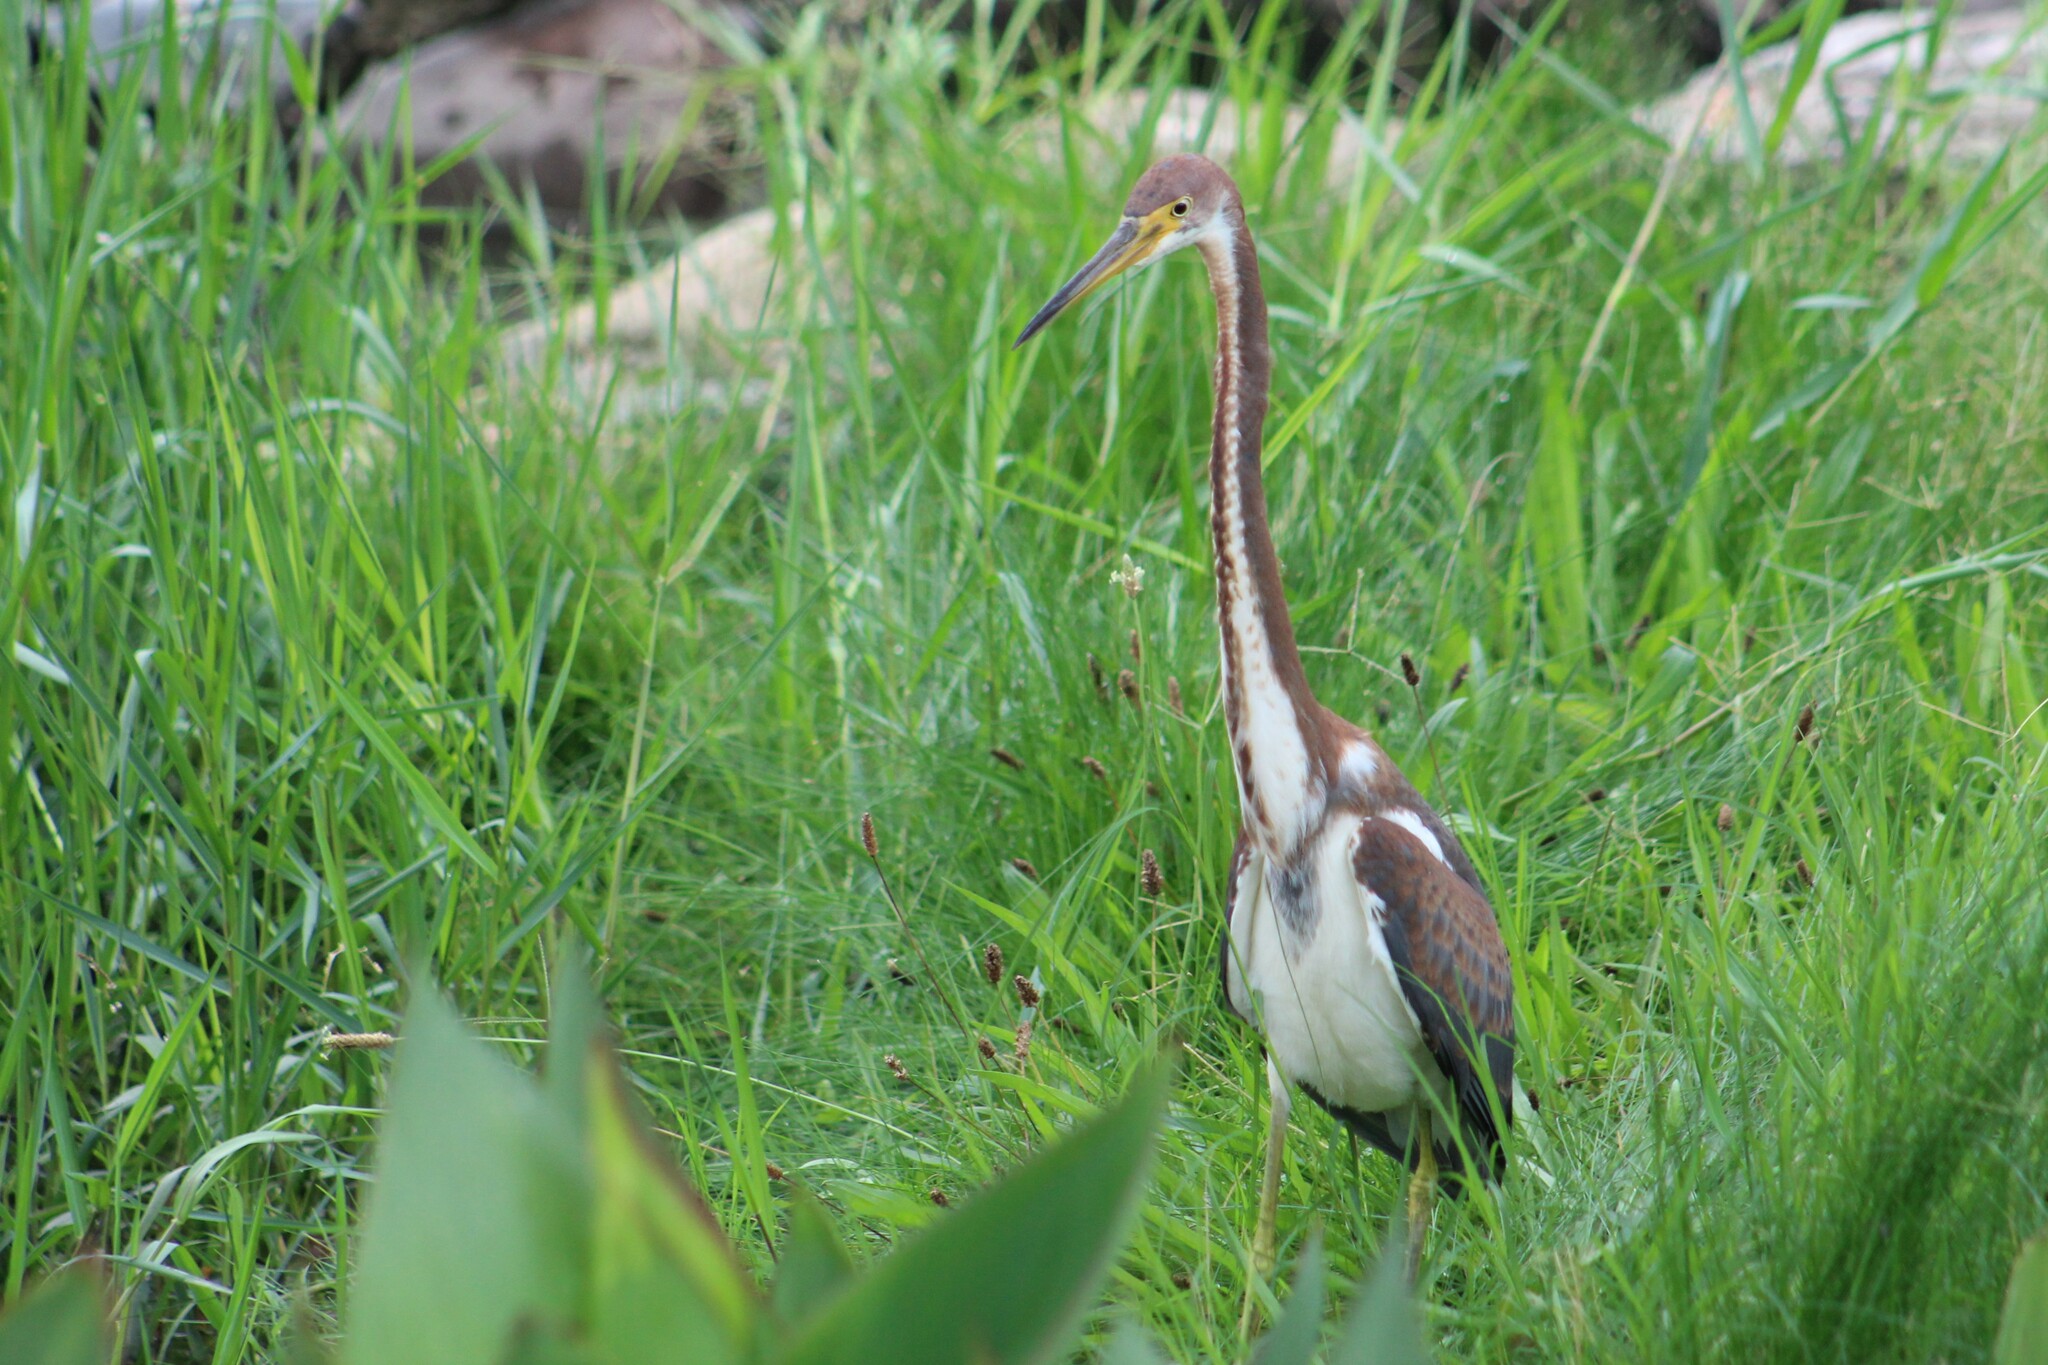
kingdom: Animalia
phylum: Chordata
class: Aves
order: Pelecaniformes
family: Ardeidae
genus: Egretta
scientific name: Egretta tricolor
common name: Tricolored heron
